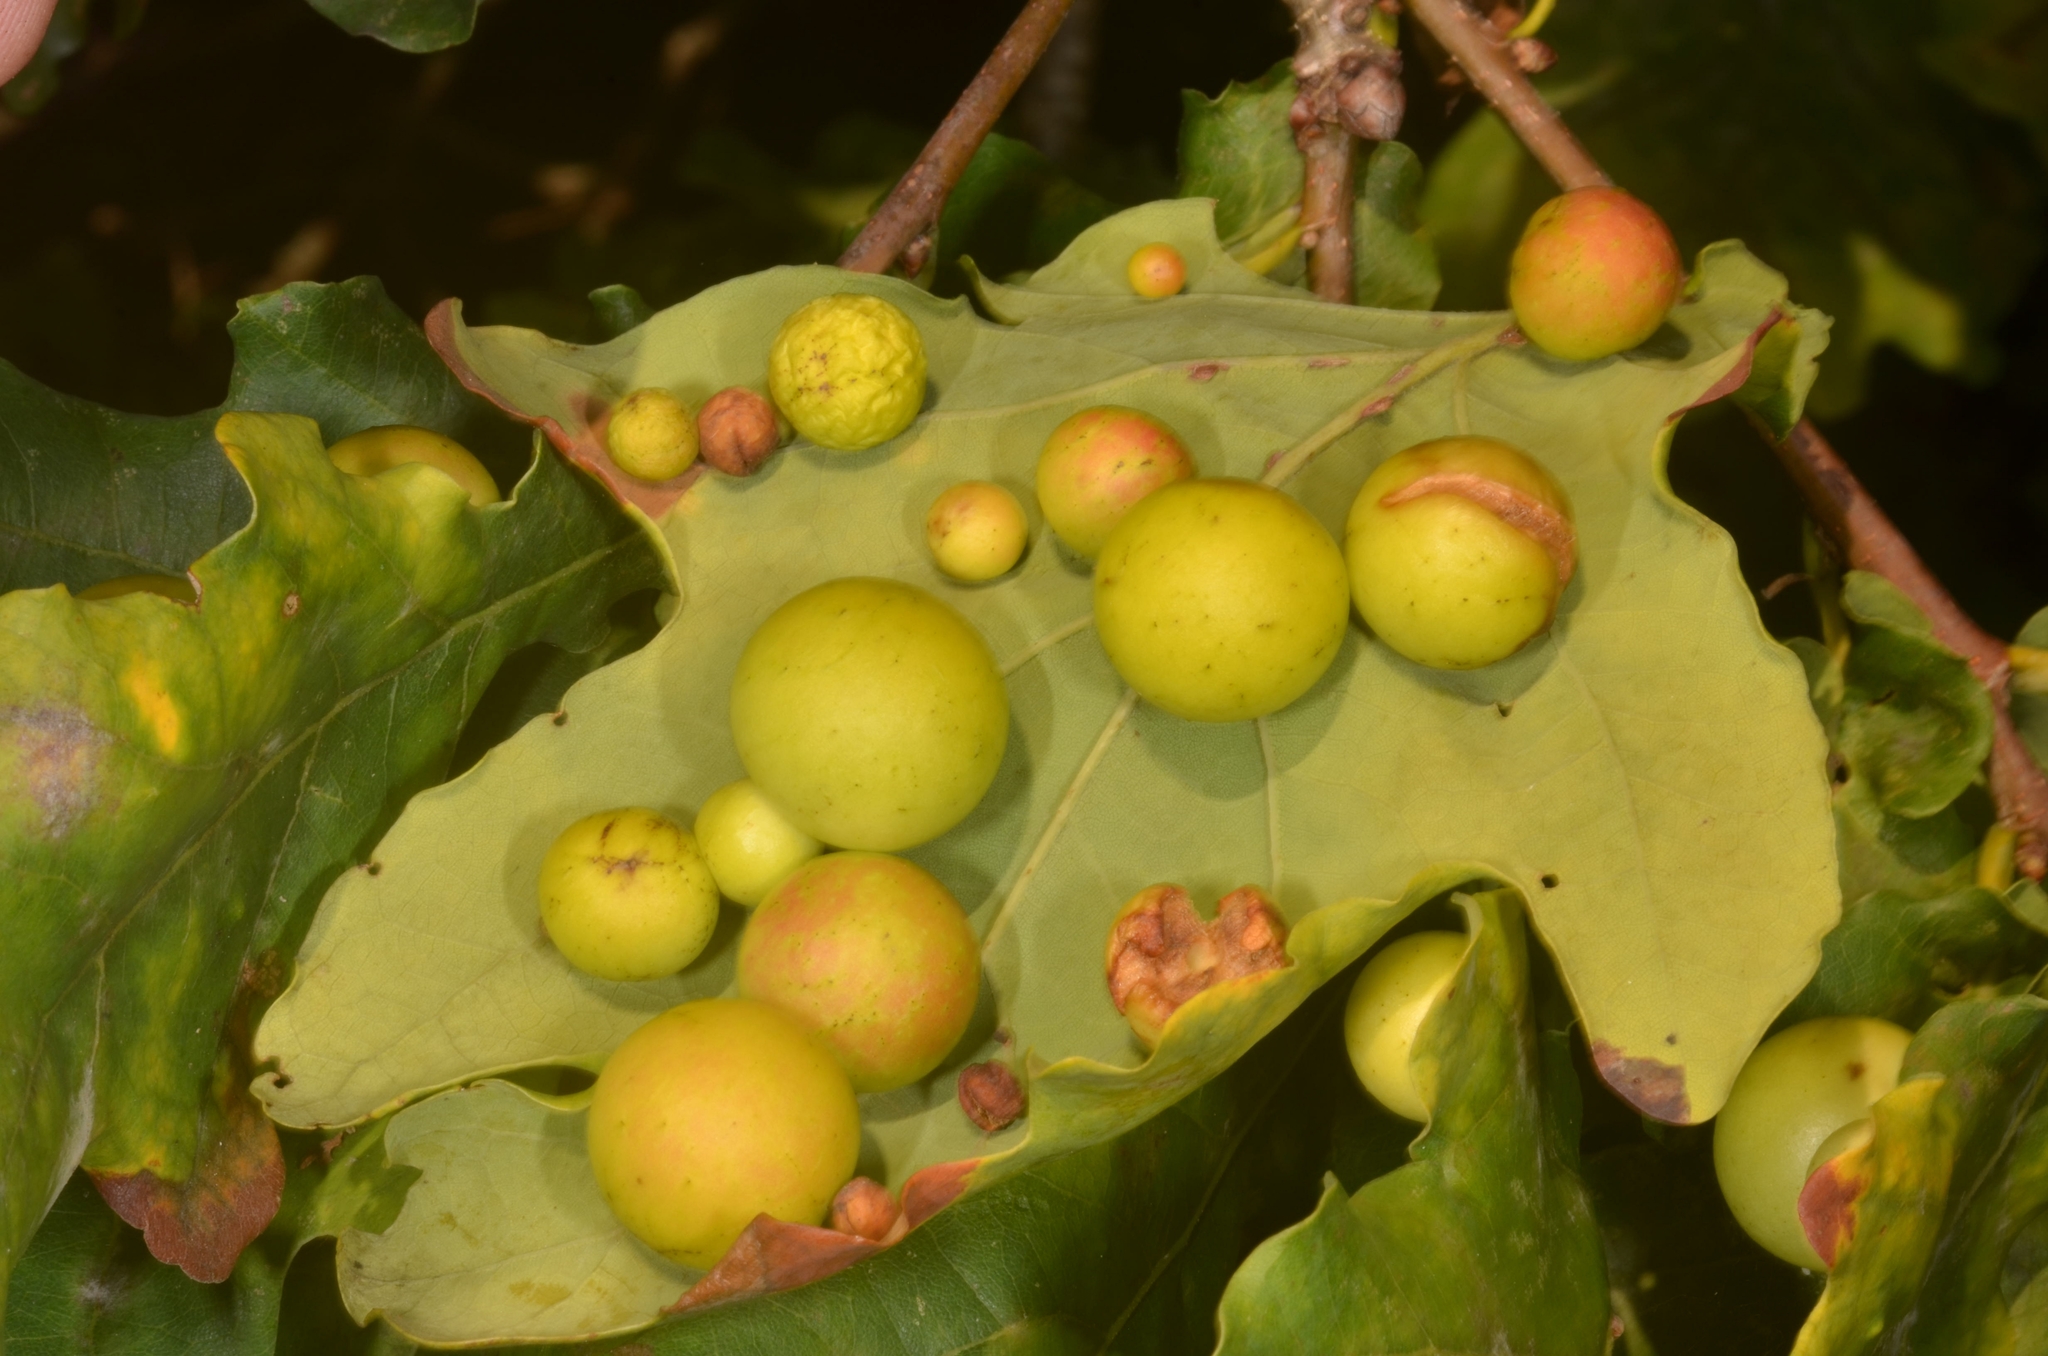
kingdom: Animalia
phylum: Arthropoda
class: Insecta
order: Hymenoptera
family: Cynipidae
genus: Cynips
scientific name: Cynips quercusfolii
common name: Cherry gall
